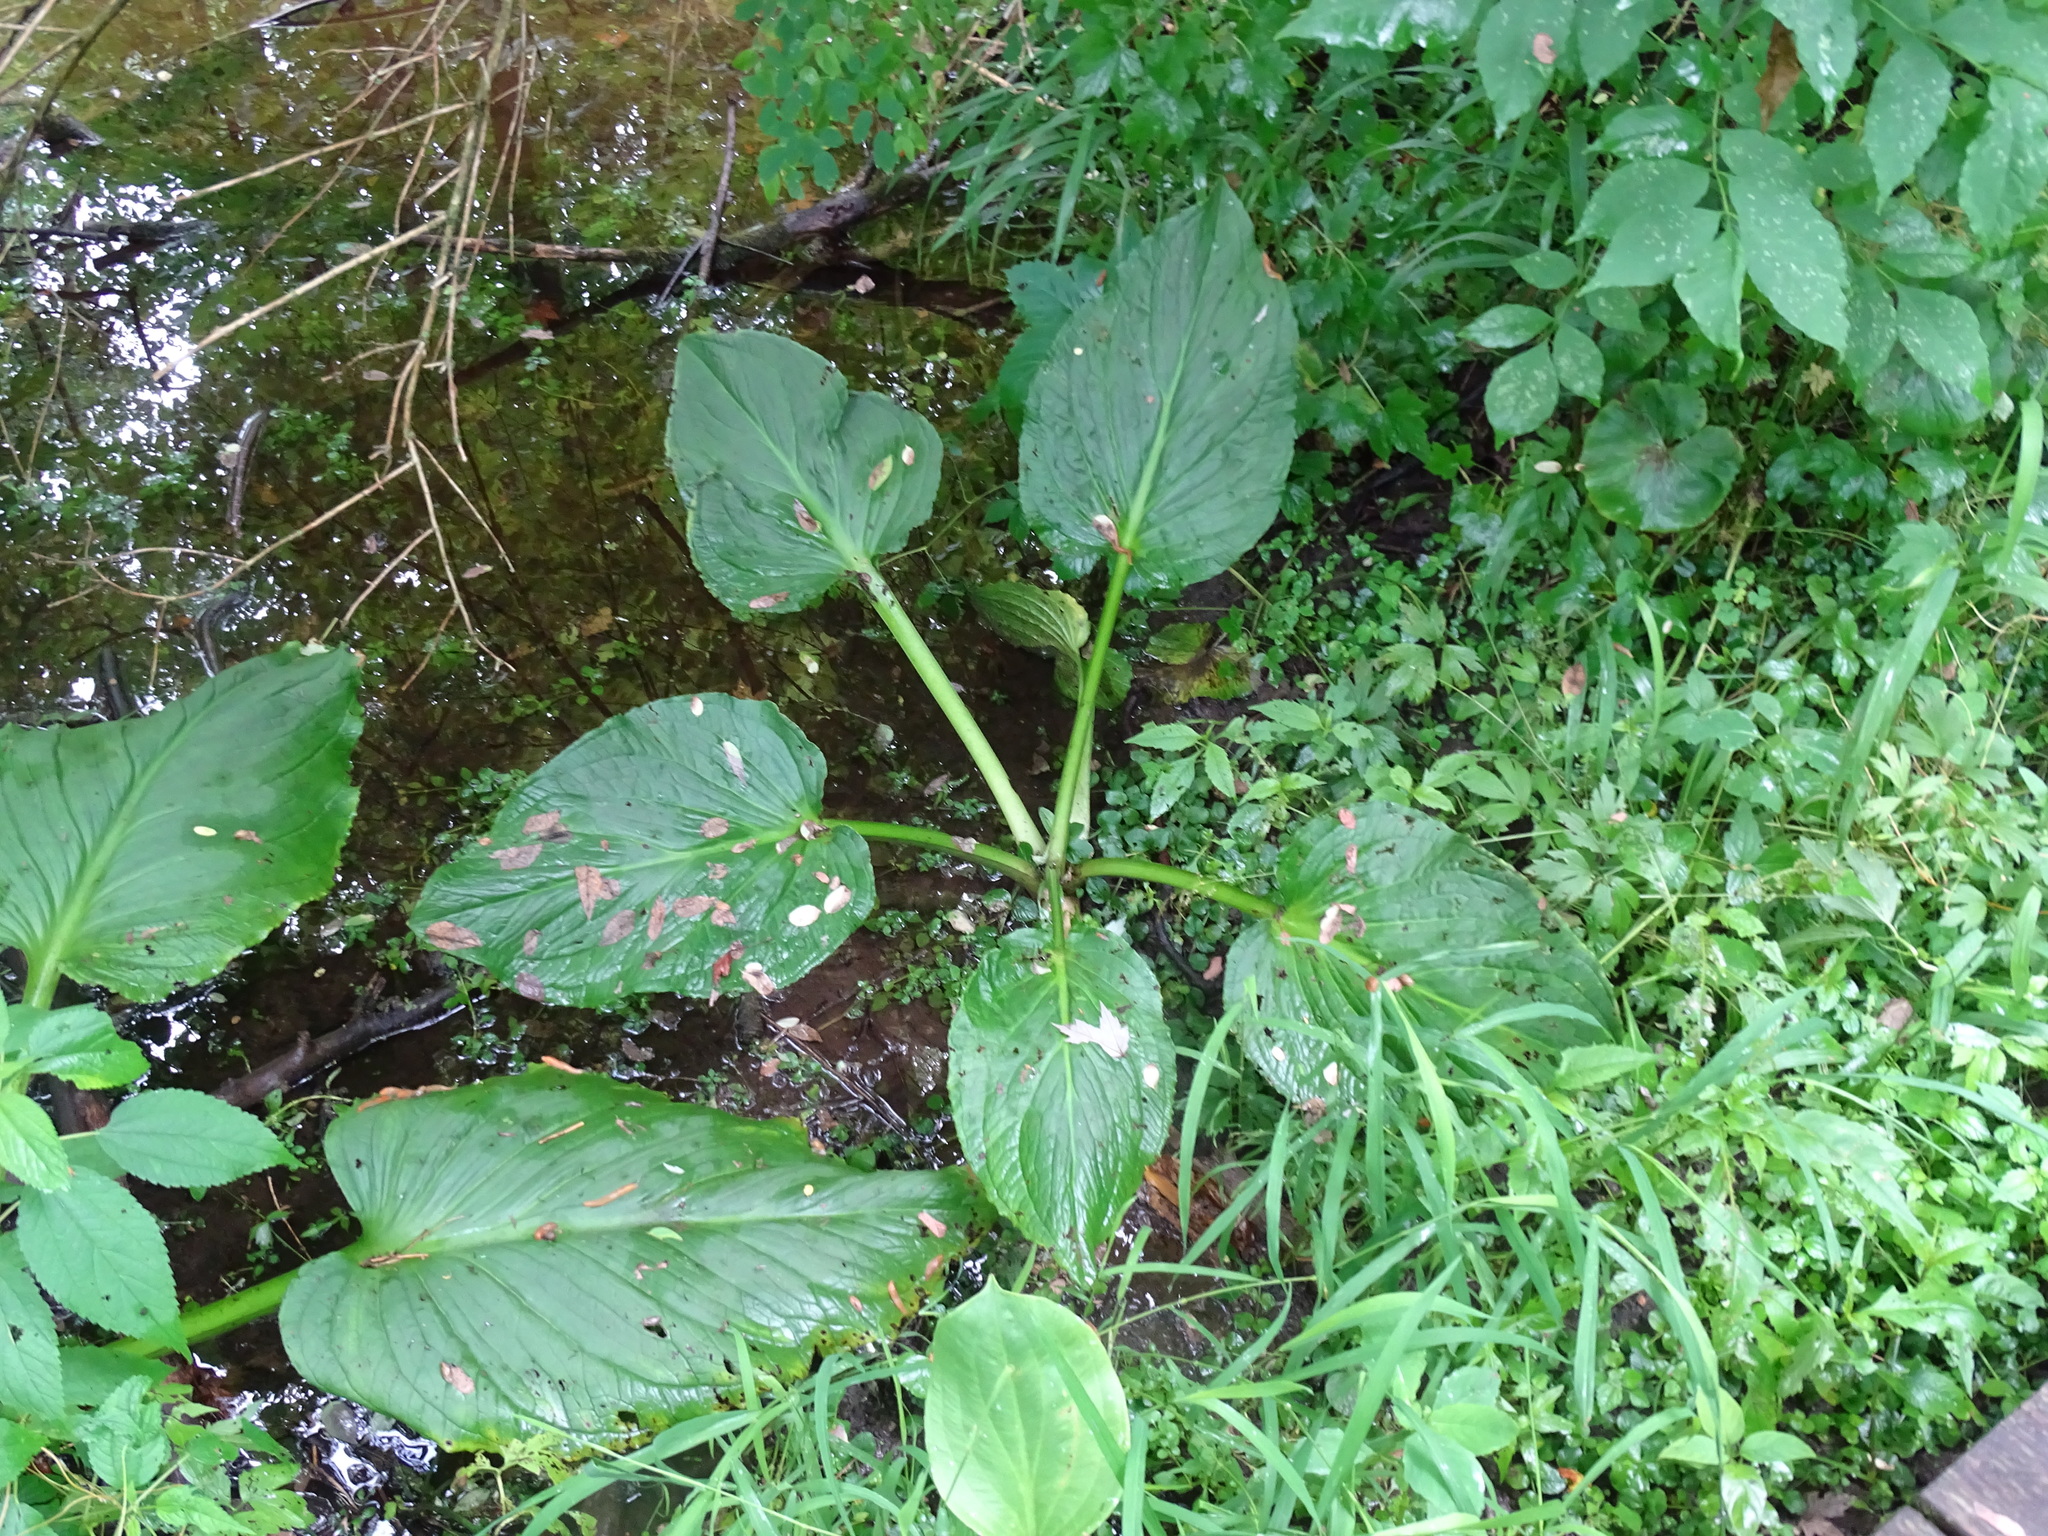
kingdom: Plantae
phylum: Tracheophyta
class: Liliopsida
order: Alismatales
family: Araceae
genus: Symplocarpus
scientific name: Symplocarpus foetidus
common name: Eastern skunk cabbage
